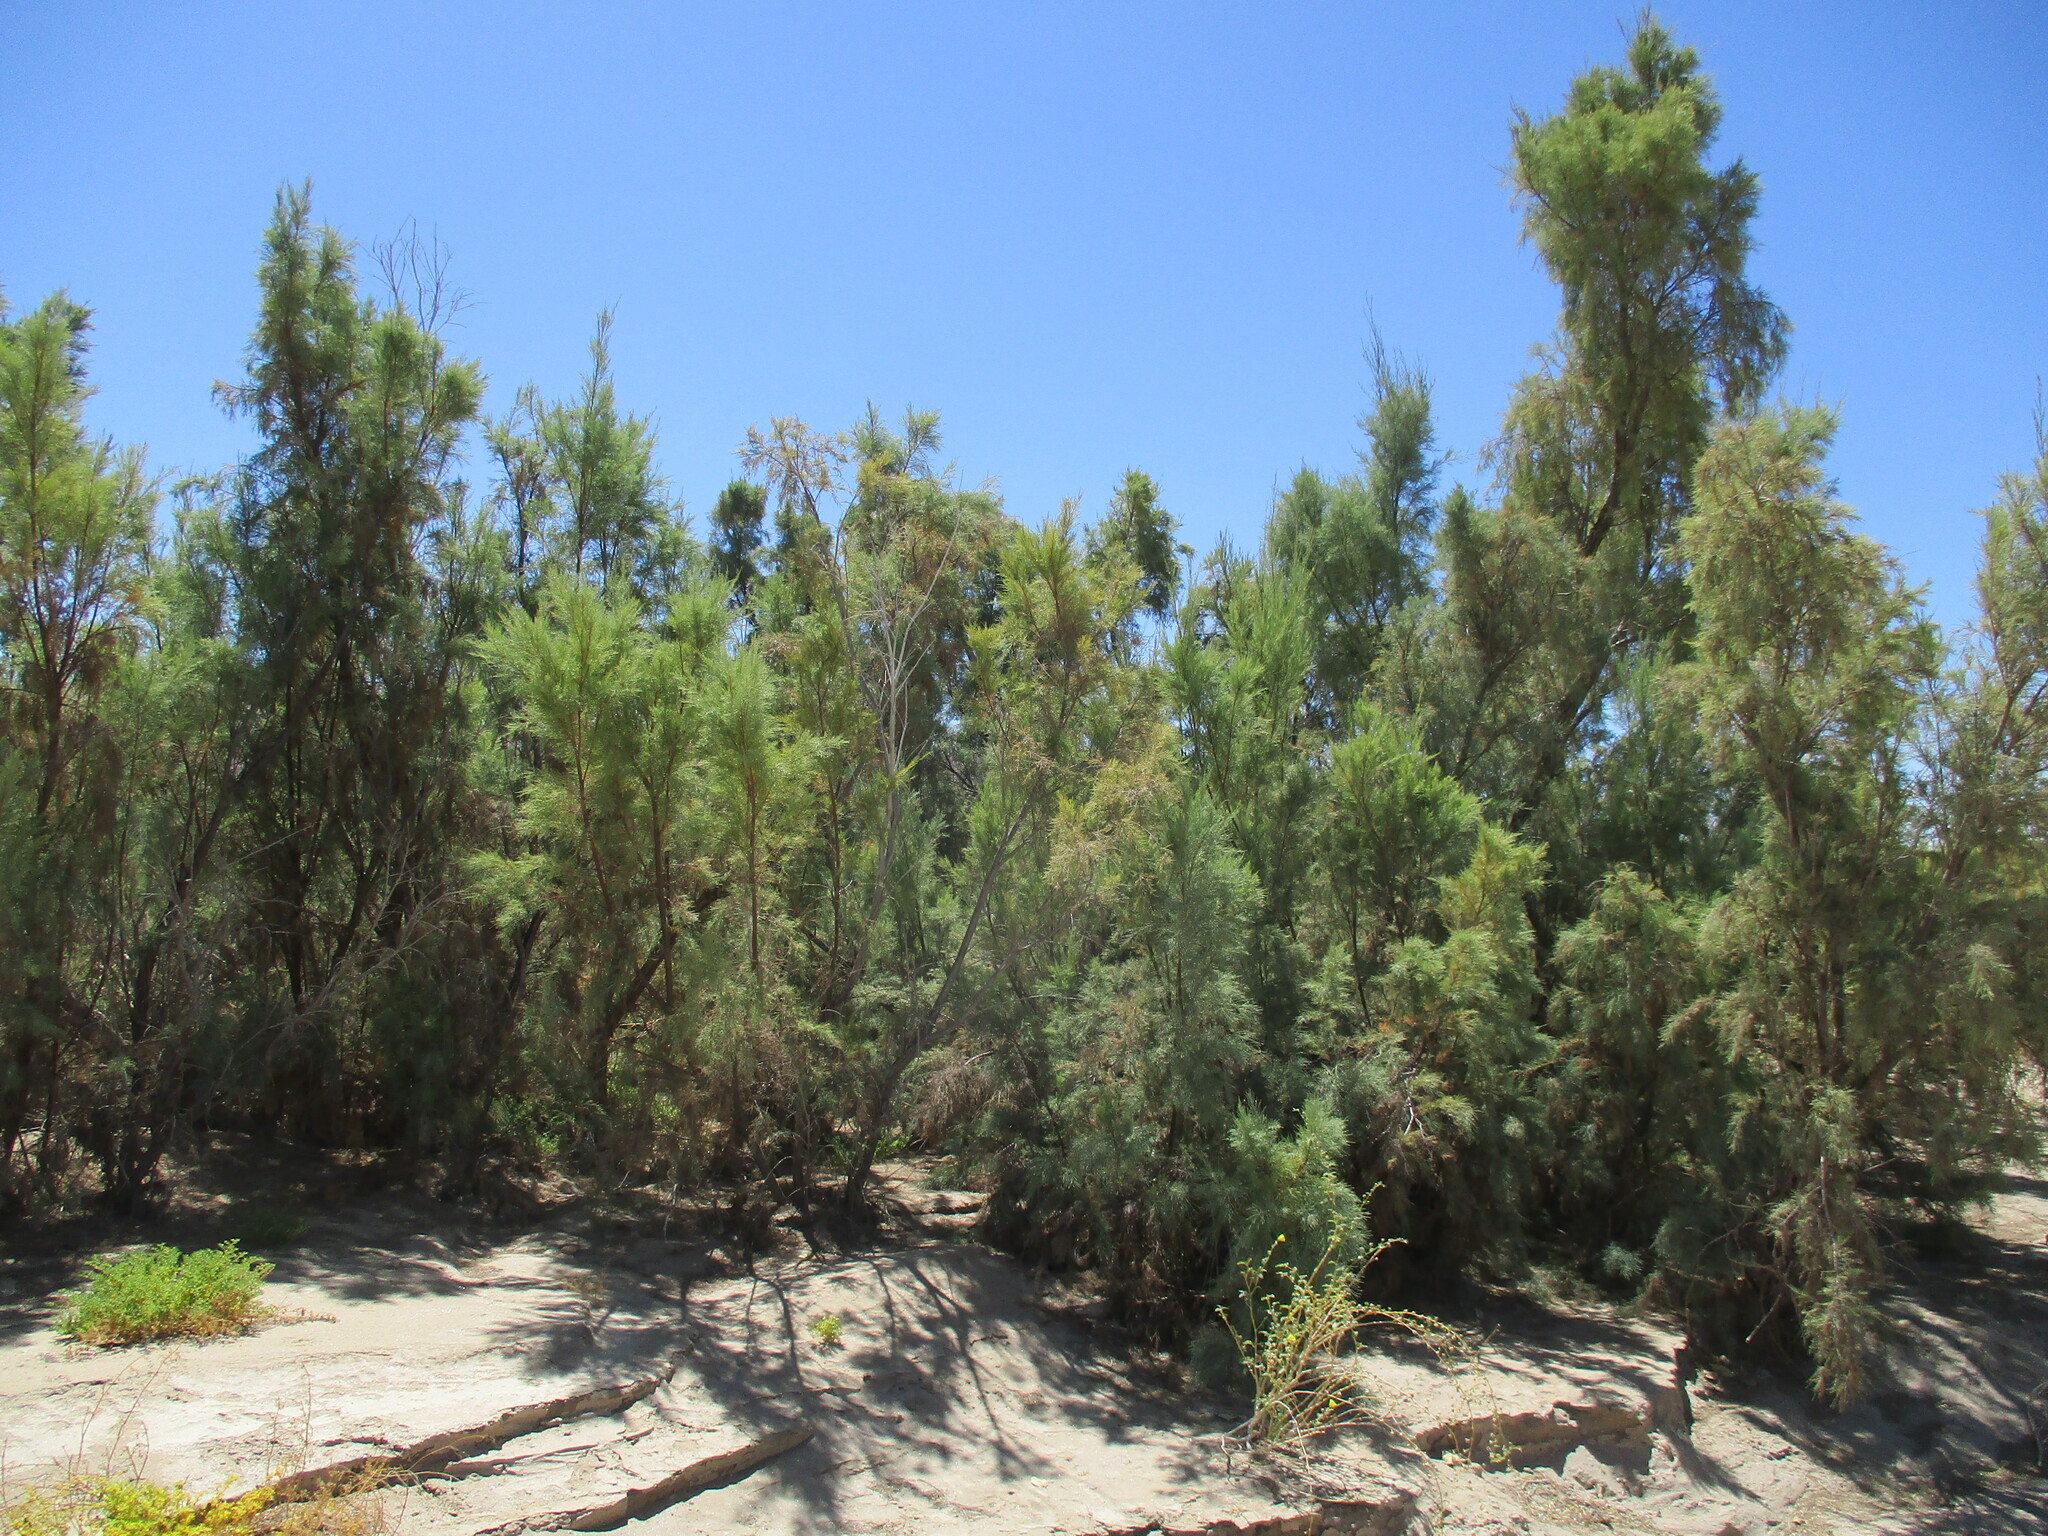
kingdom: Plantae
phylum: Tracheophyta
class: Magnoliopsida
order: Caryophyllales
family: Tamaricaceae
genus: Tamarix
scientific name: Tamarix usneoides
